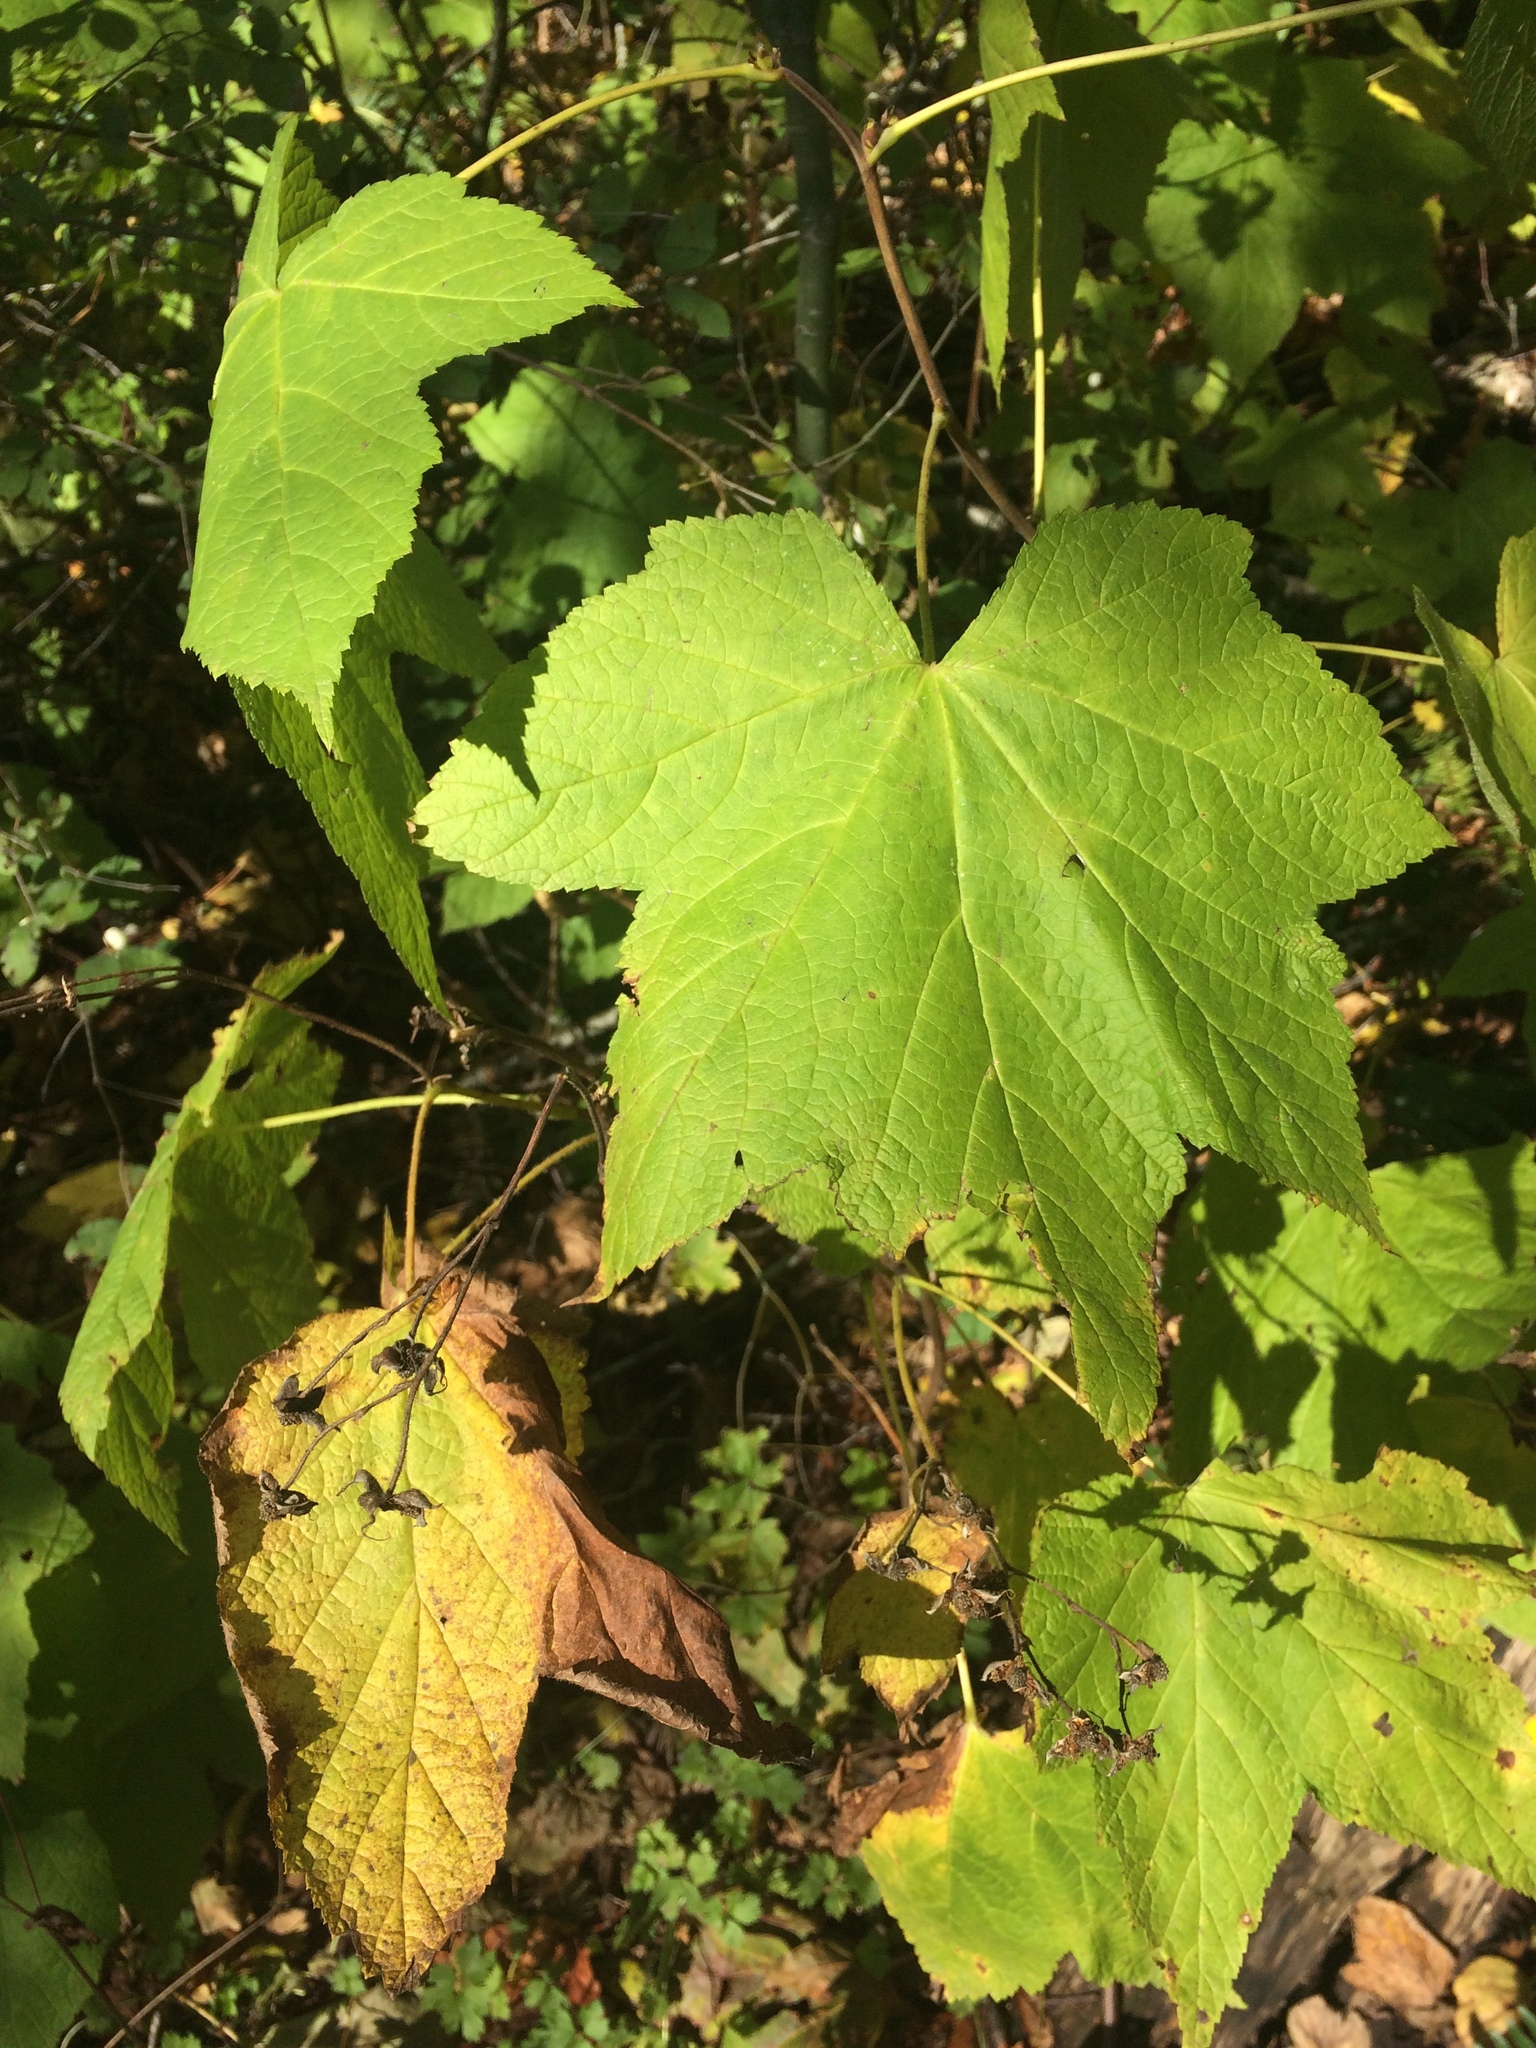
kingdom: Plantae
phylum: Tracheophyta
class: Magnoliopsida
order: Rosales
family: Rosaceae
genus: Rubus
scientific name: Rubus parviflorus
